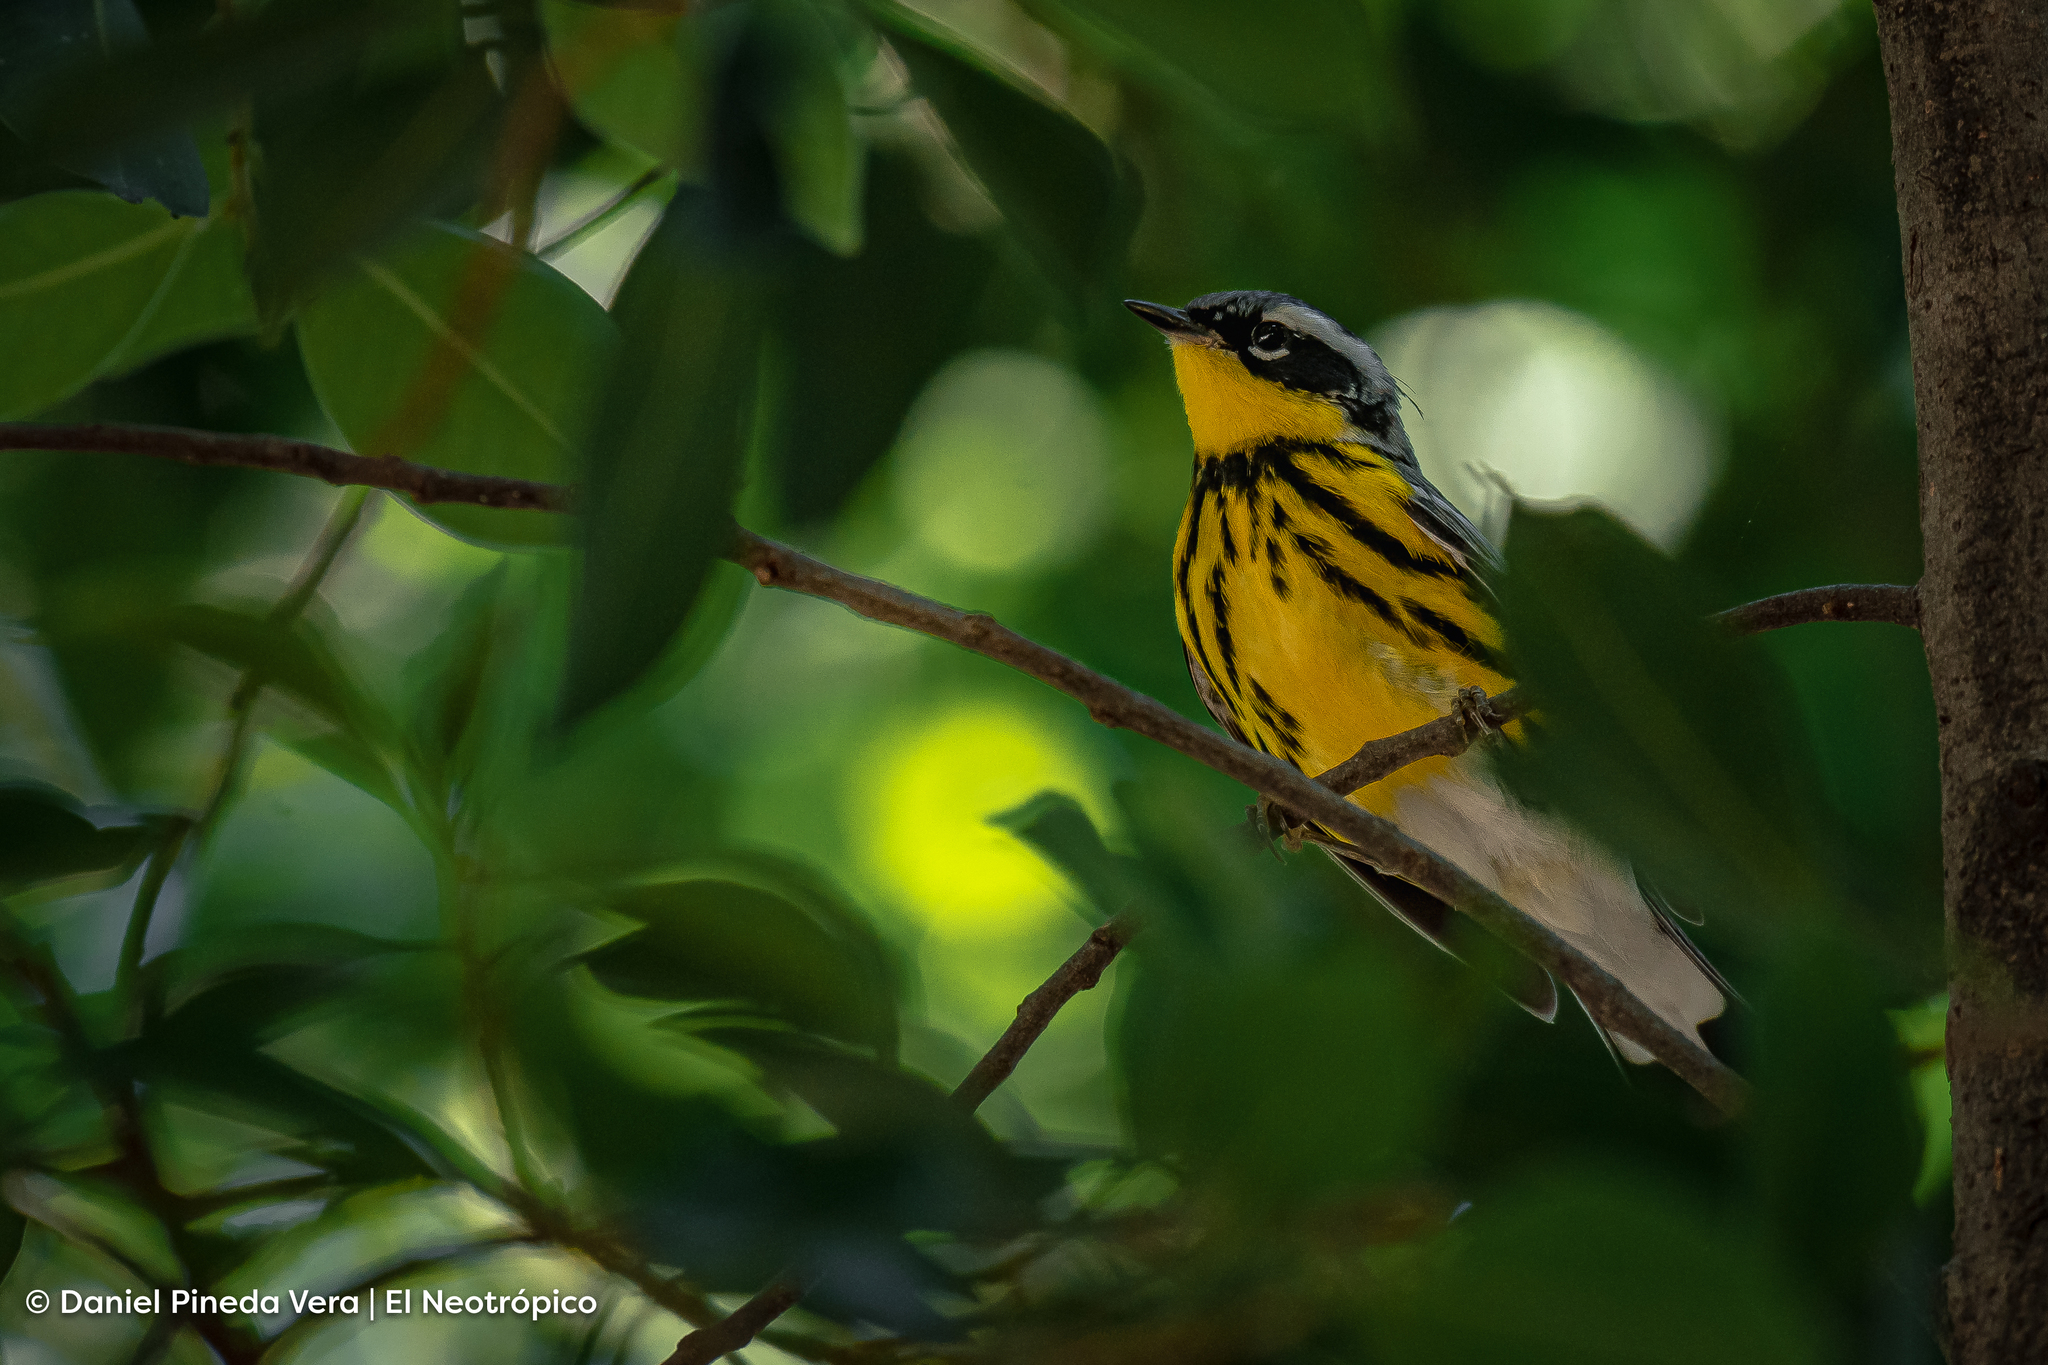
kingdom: Animalia
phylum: Chordata
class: Aves
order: Passeriformes
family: Parulidae
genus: Setophaga
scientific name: Setophaga magnolia
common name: Magnolia warbler
